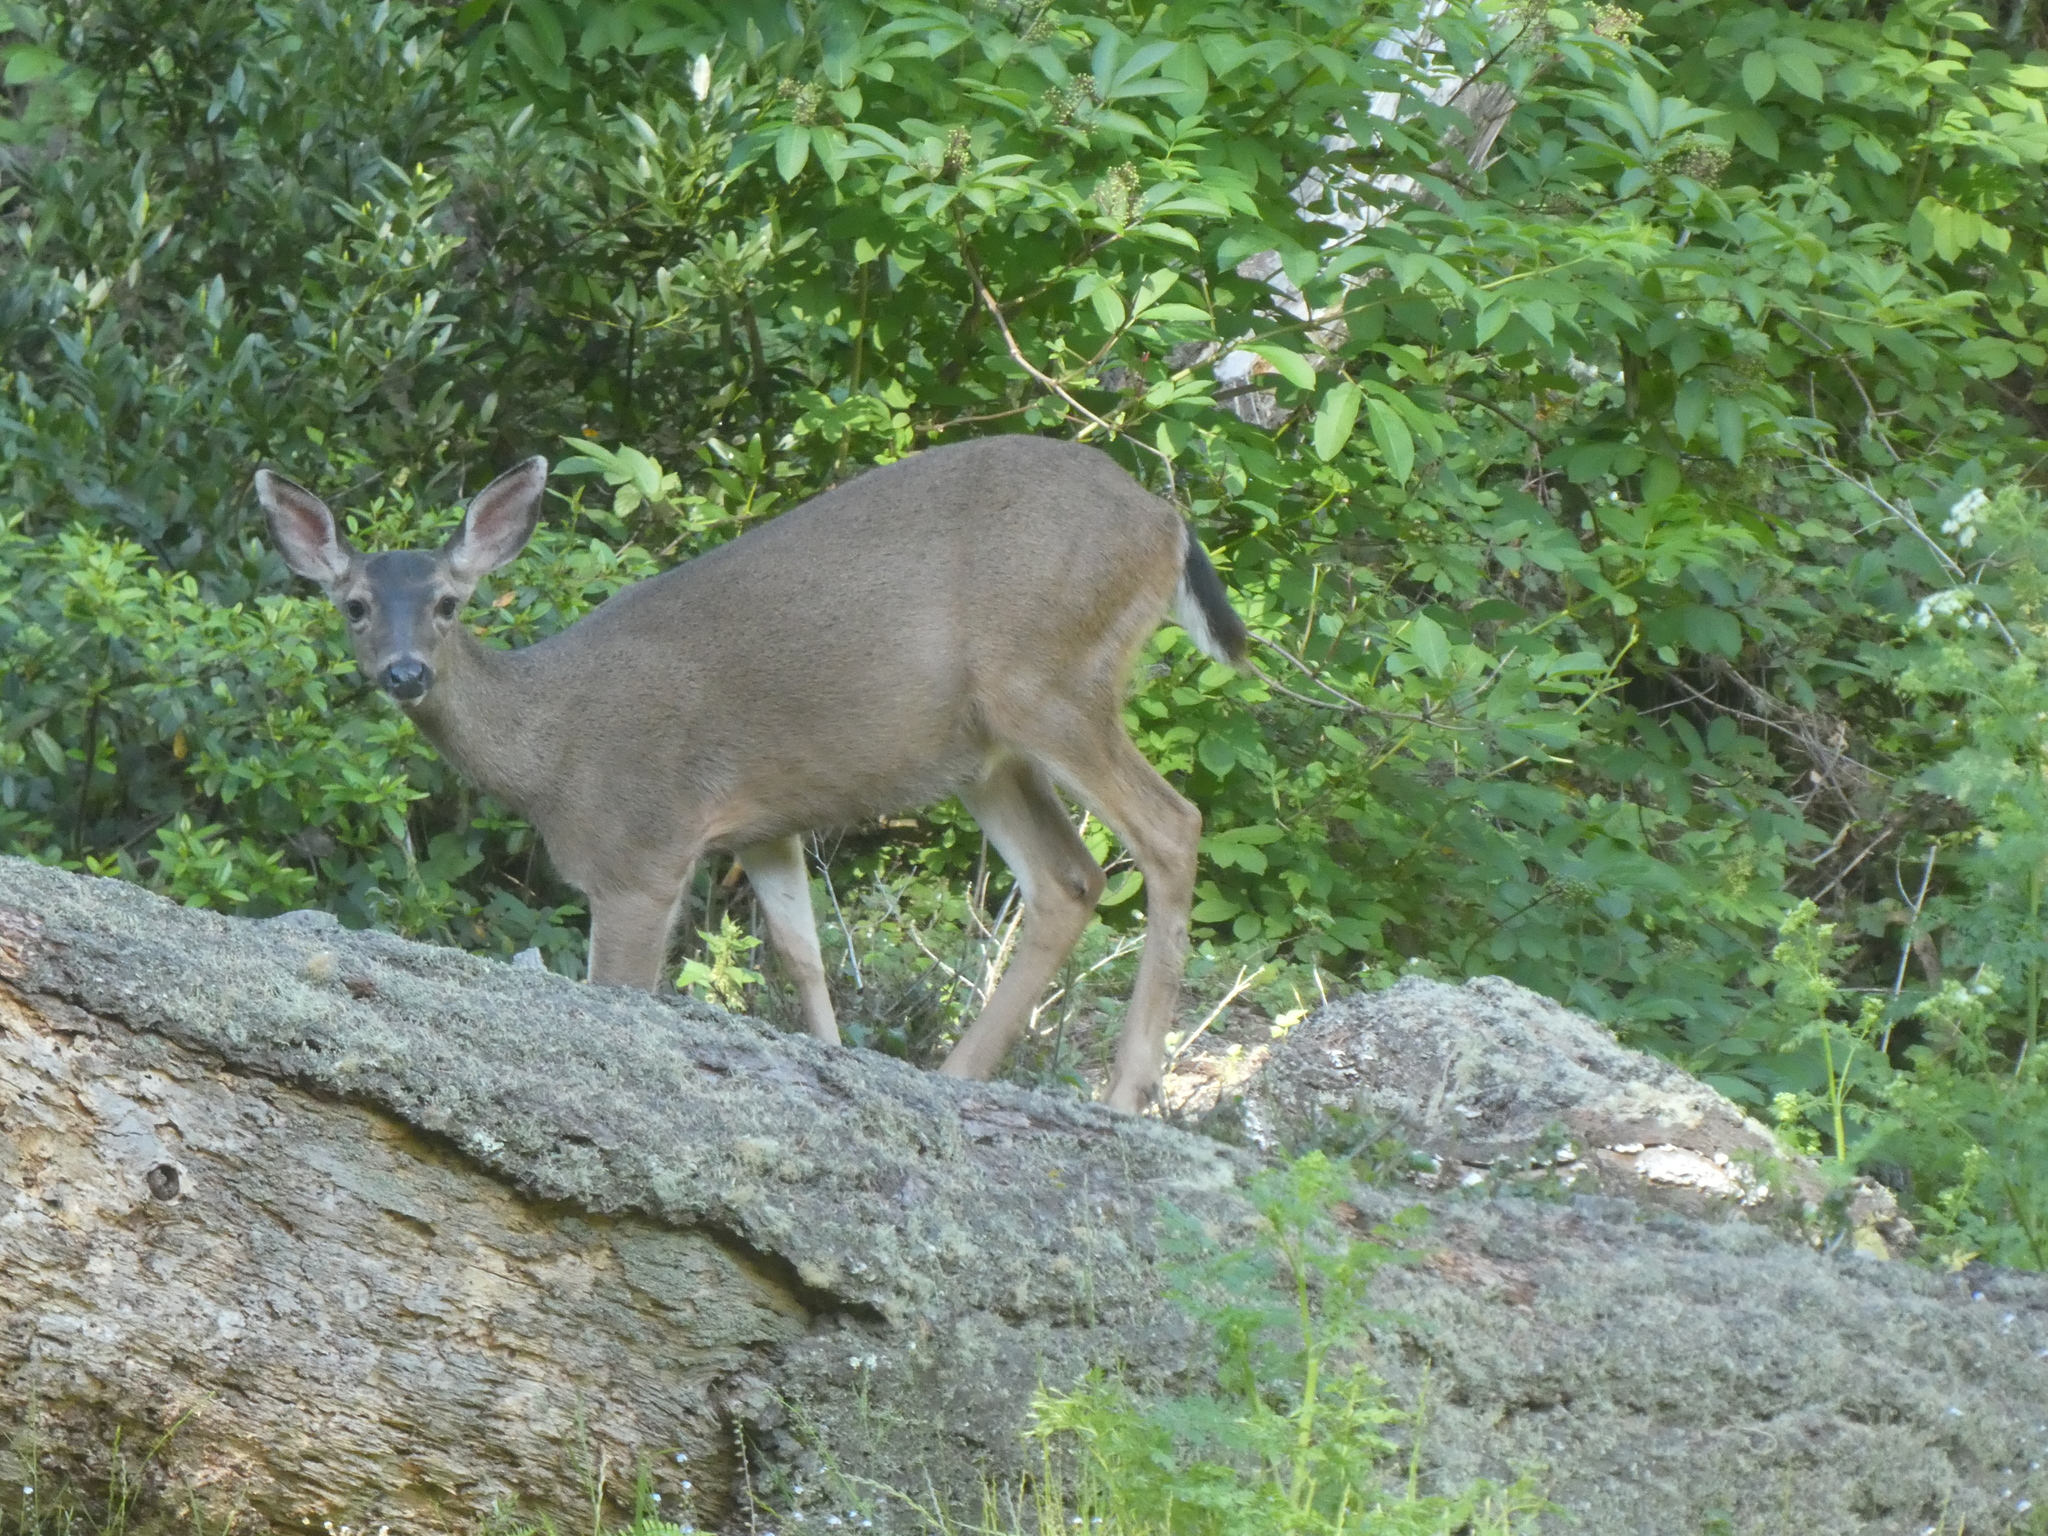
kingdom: Animalia
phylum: Chordata
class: Mammalia
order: Artiodactyla
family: Cervidae
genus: Odocoileus
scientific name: Odocoileus hemionus
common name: Mule deer
